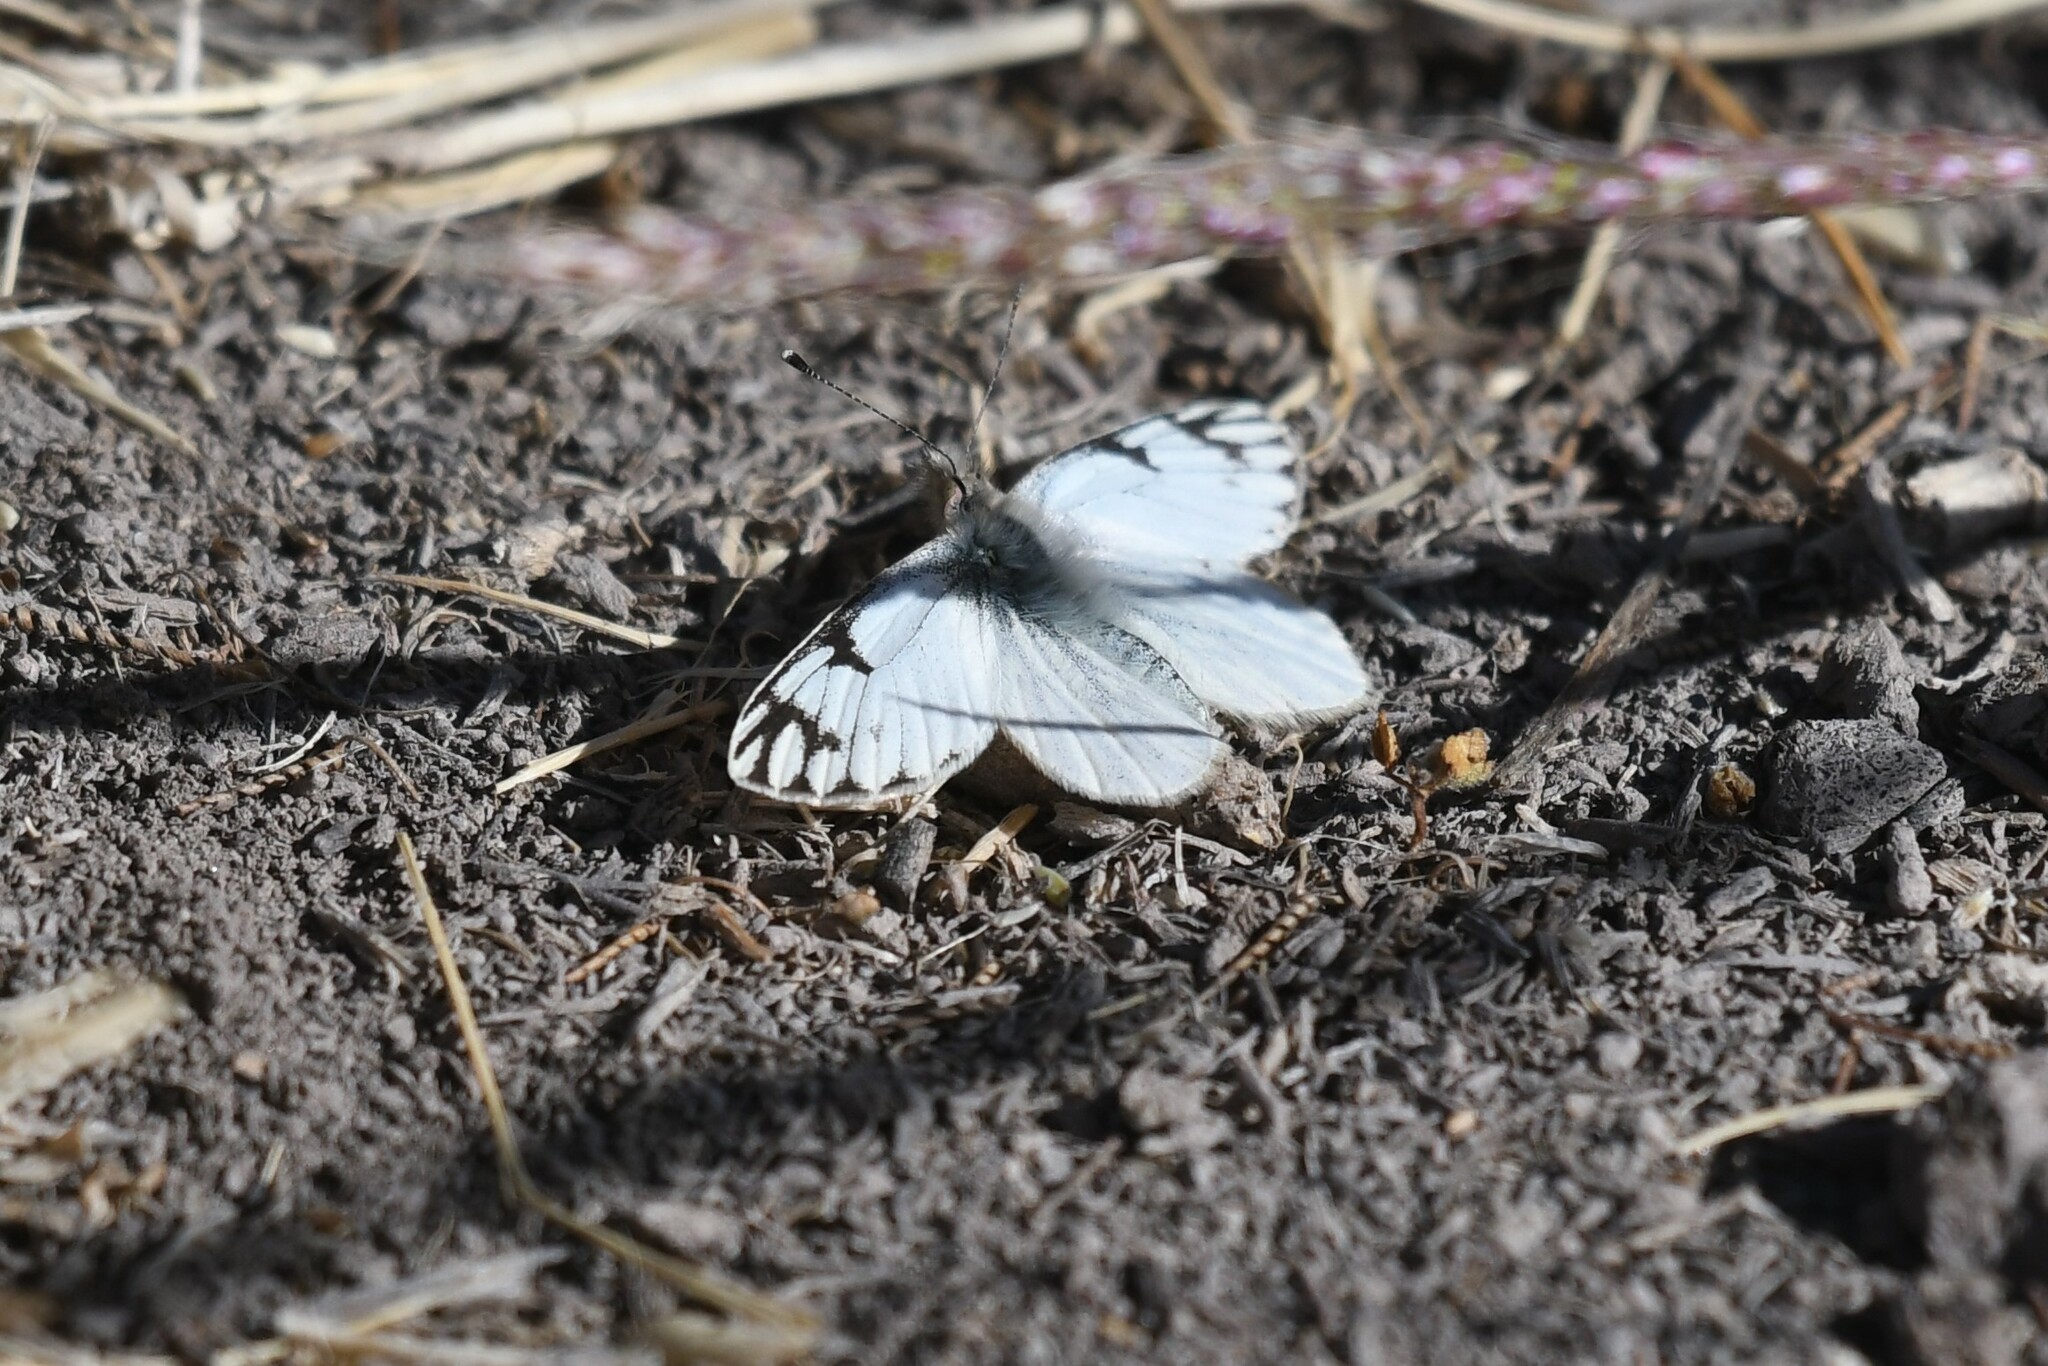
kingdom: Animalia
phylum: Arthropoda
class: Insecta
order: Lepidoptera
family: Pieridae
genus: Phulia
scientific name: Phulia nymphula
